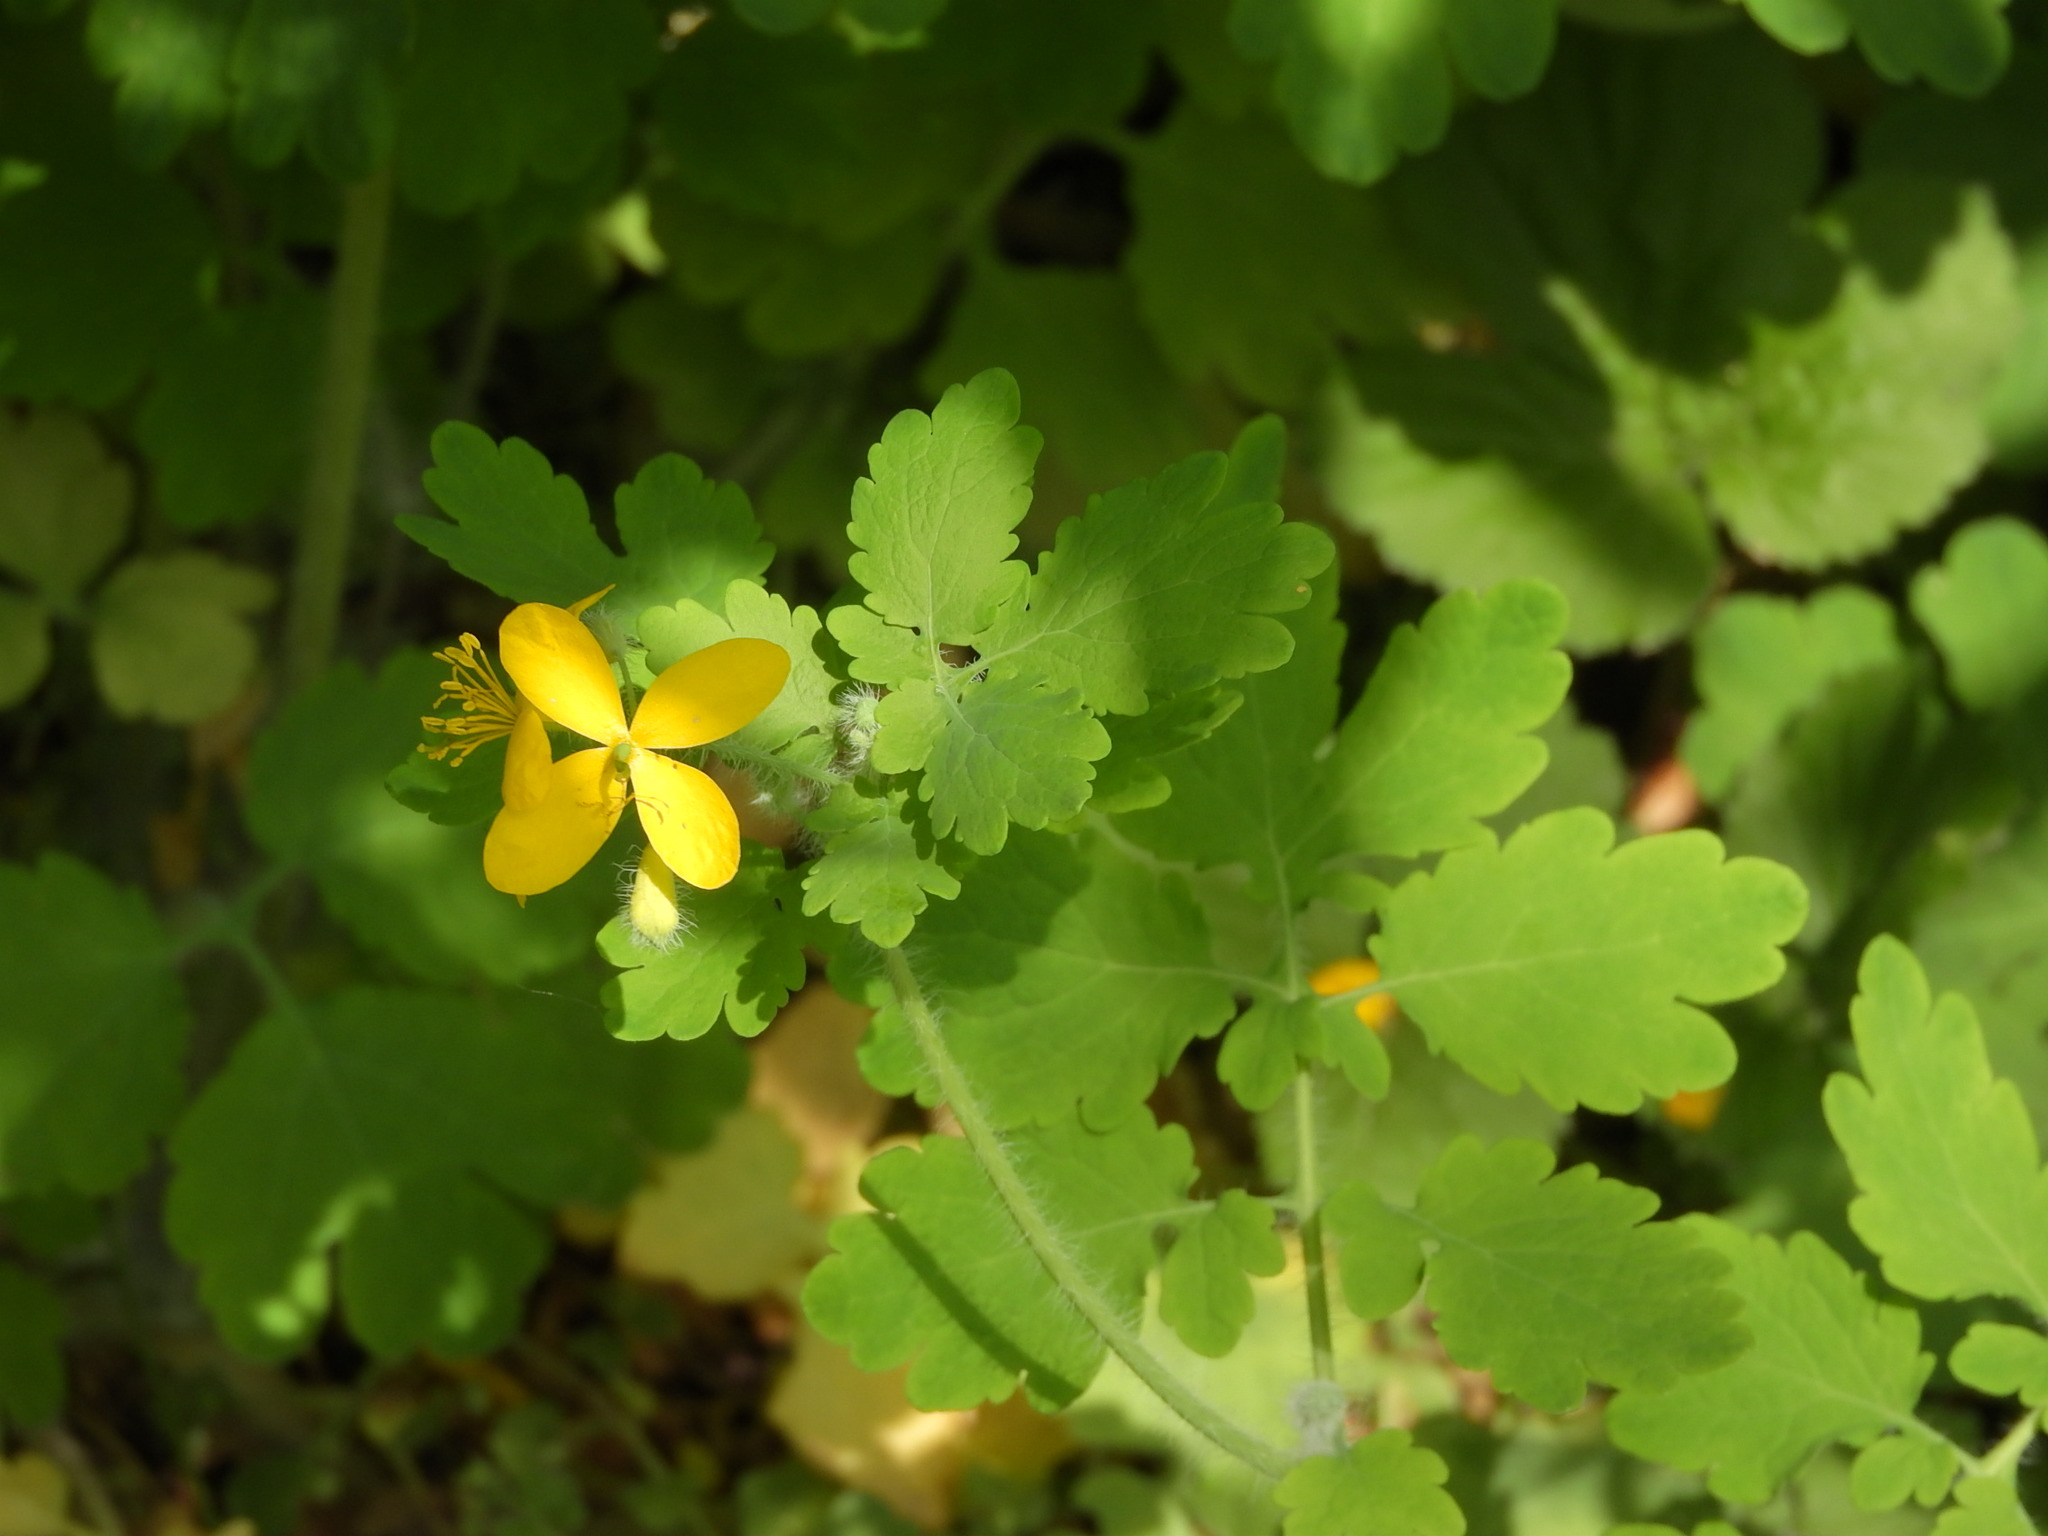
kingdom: Plantae
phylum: Tracheophyta
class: Magnoliopsida
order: Ranunculales
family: Papaveraceae
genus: Chelidonium
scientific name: Chelidonium majus
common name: Greater celandine
